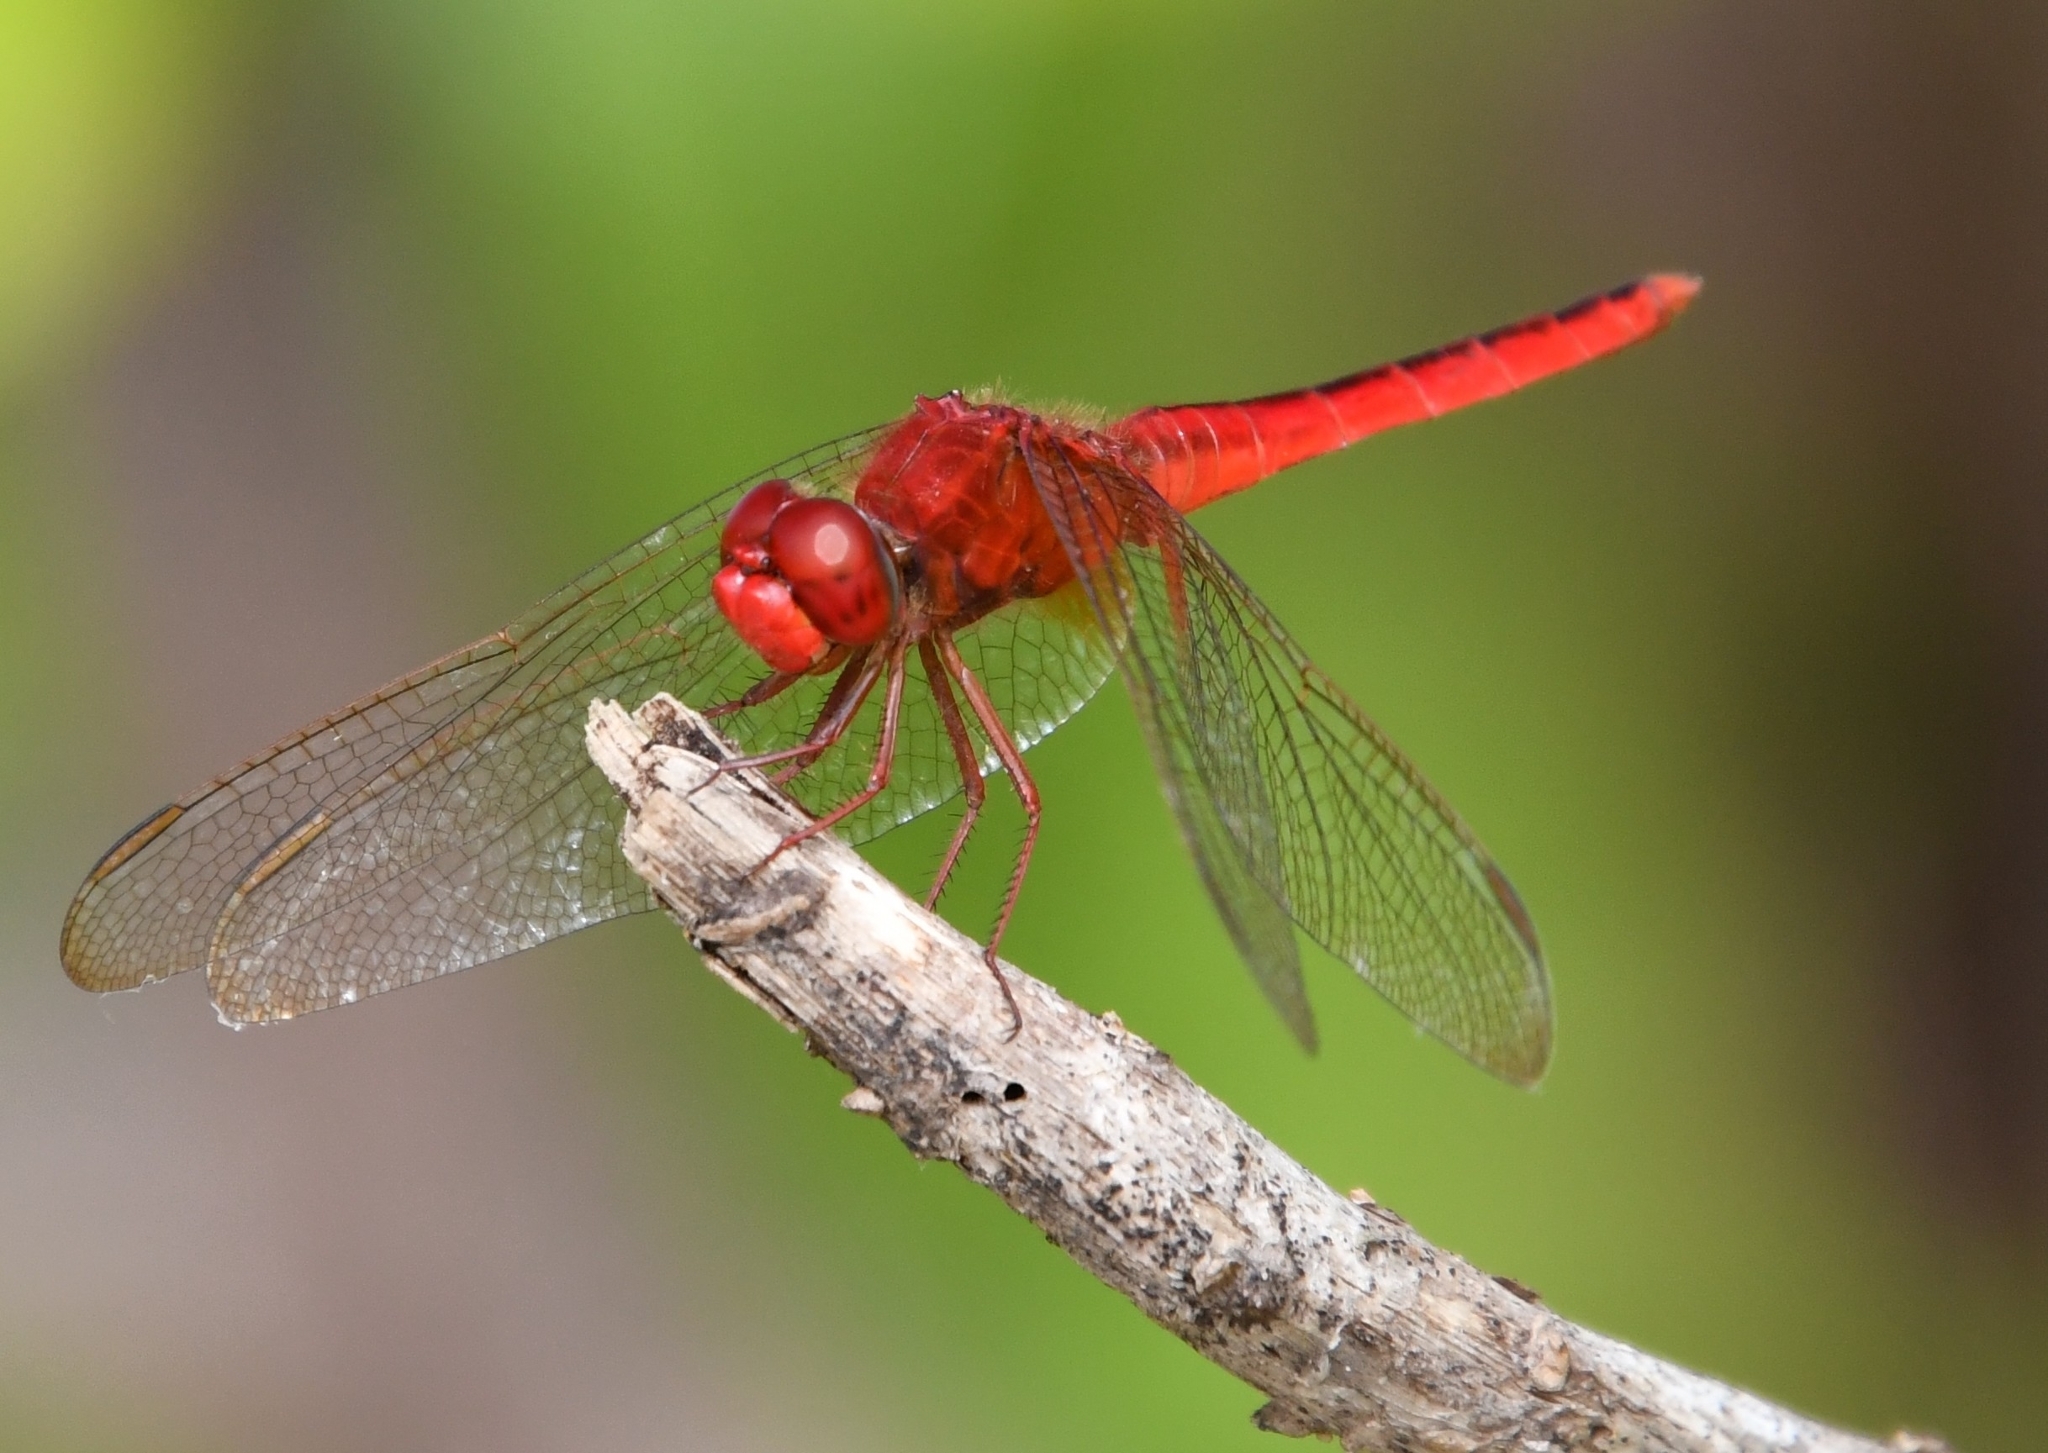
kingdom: Animalia
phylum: Arthropoda
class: Insecta
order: Odonata
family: Libellulidae
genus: Crocothemis
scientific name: Crocothemis servilia
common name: Scarlet skimmer
